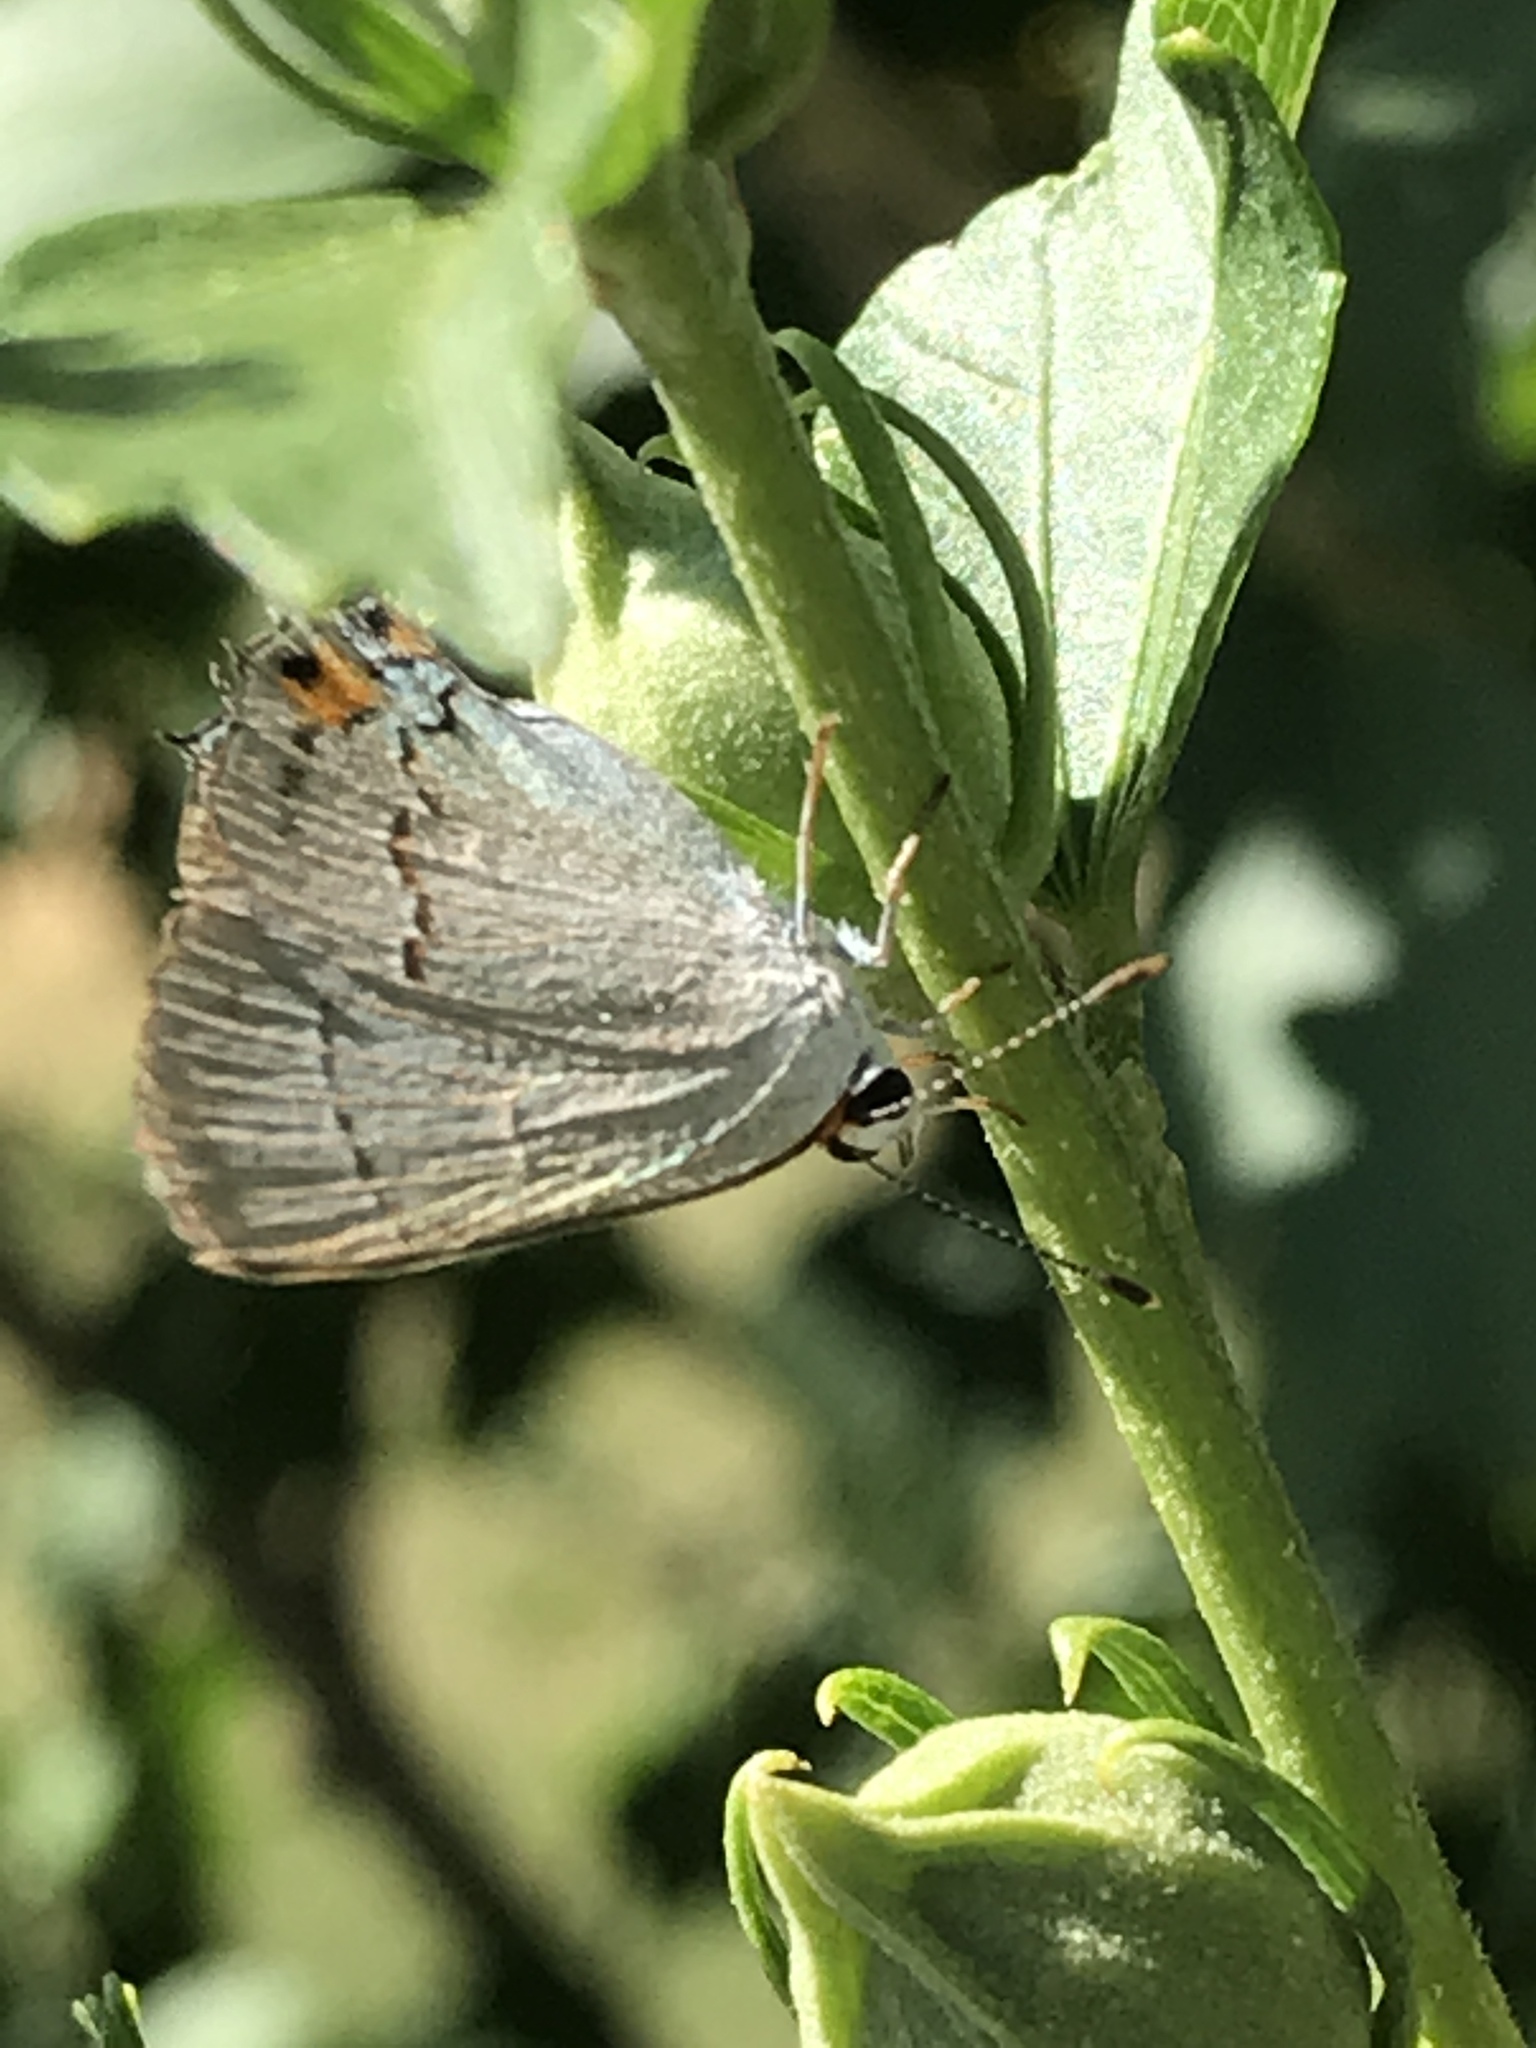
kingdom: Animalia
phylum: Arthropoda
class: Insecta
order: Lepidoptera
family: Lycaenidae
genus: Strymon
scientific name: Strymon melinus
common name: Gray hairstreak
